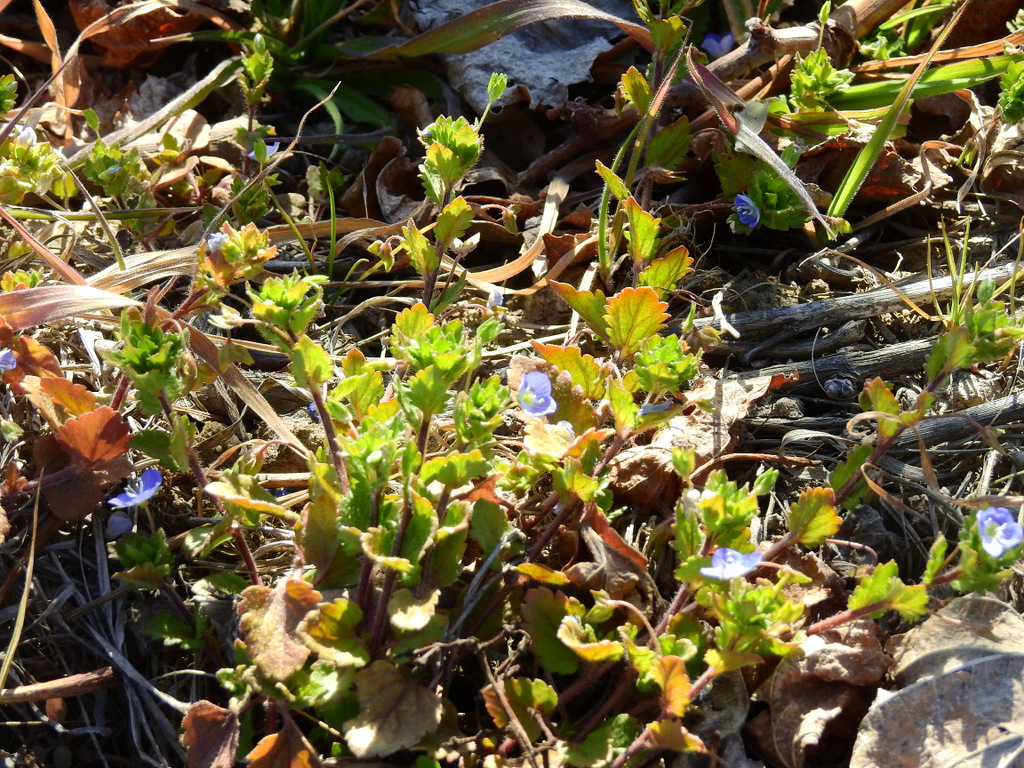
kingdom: Plantae
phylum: Tracheophyta
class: Magnoliopsida
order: Lamiales
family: Plantaginaceae
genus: Veronica
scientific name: Veronica persica
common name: Common field-speedwell
